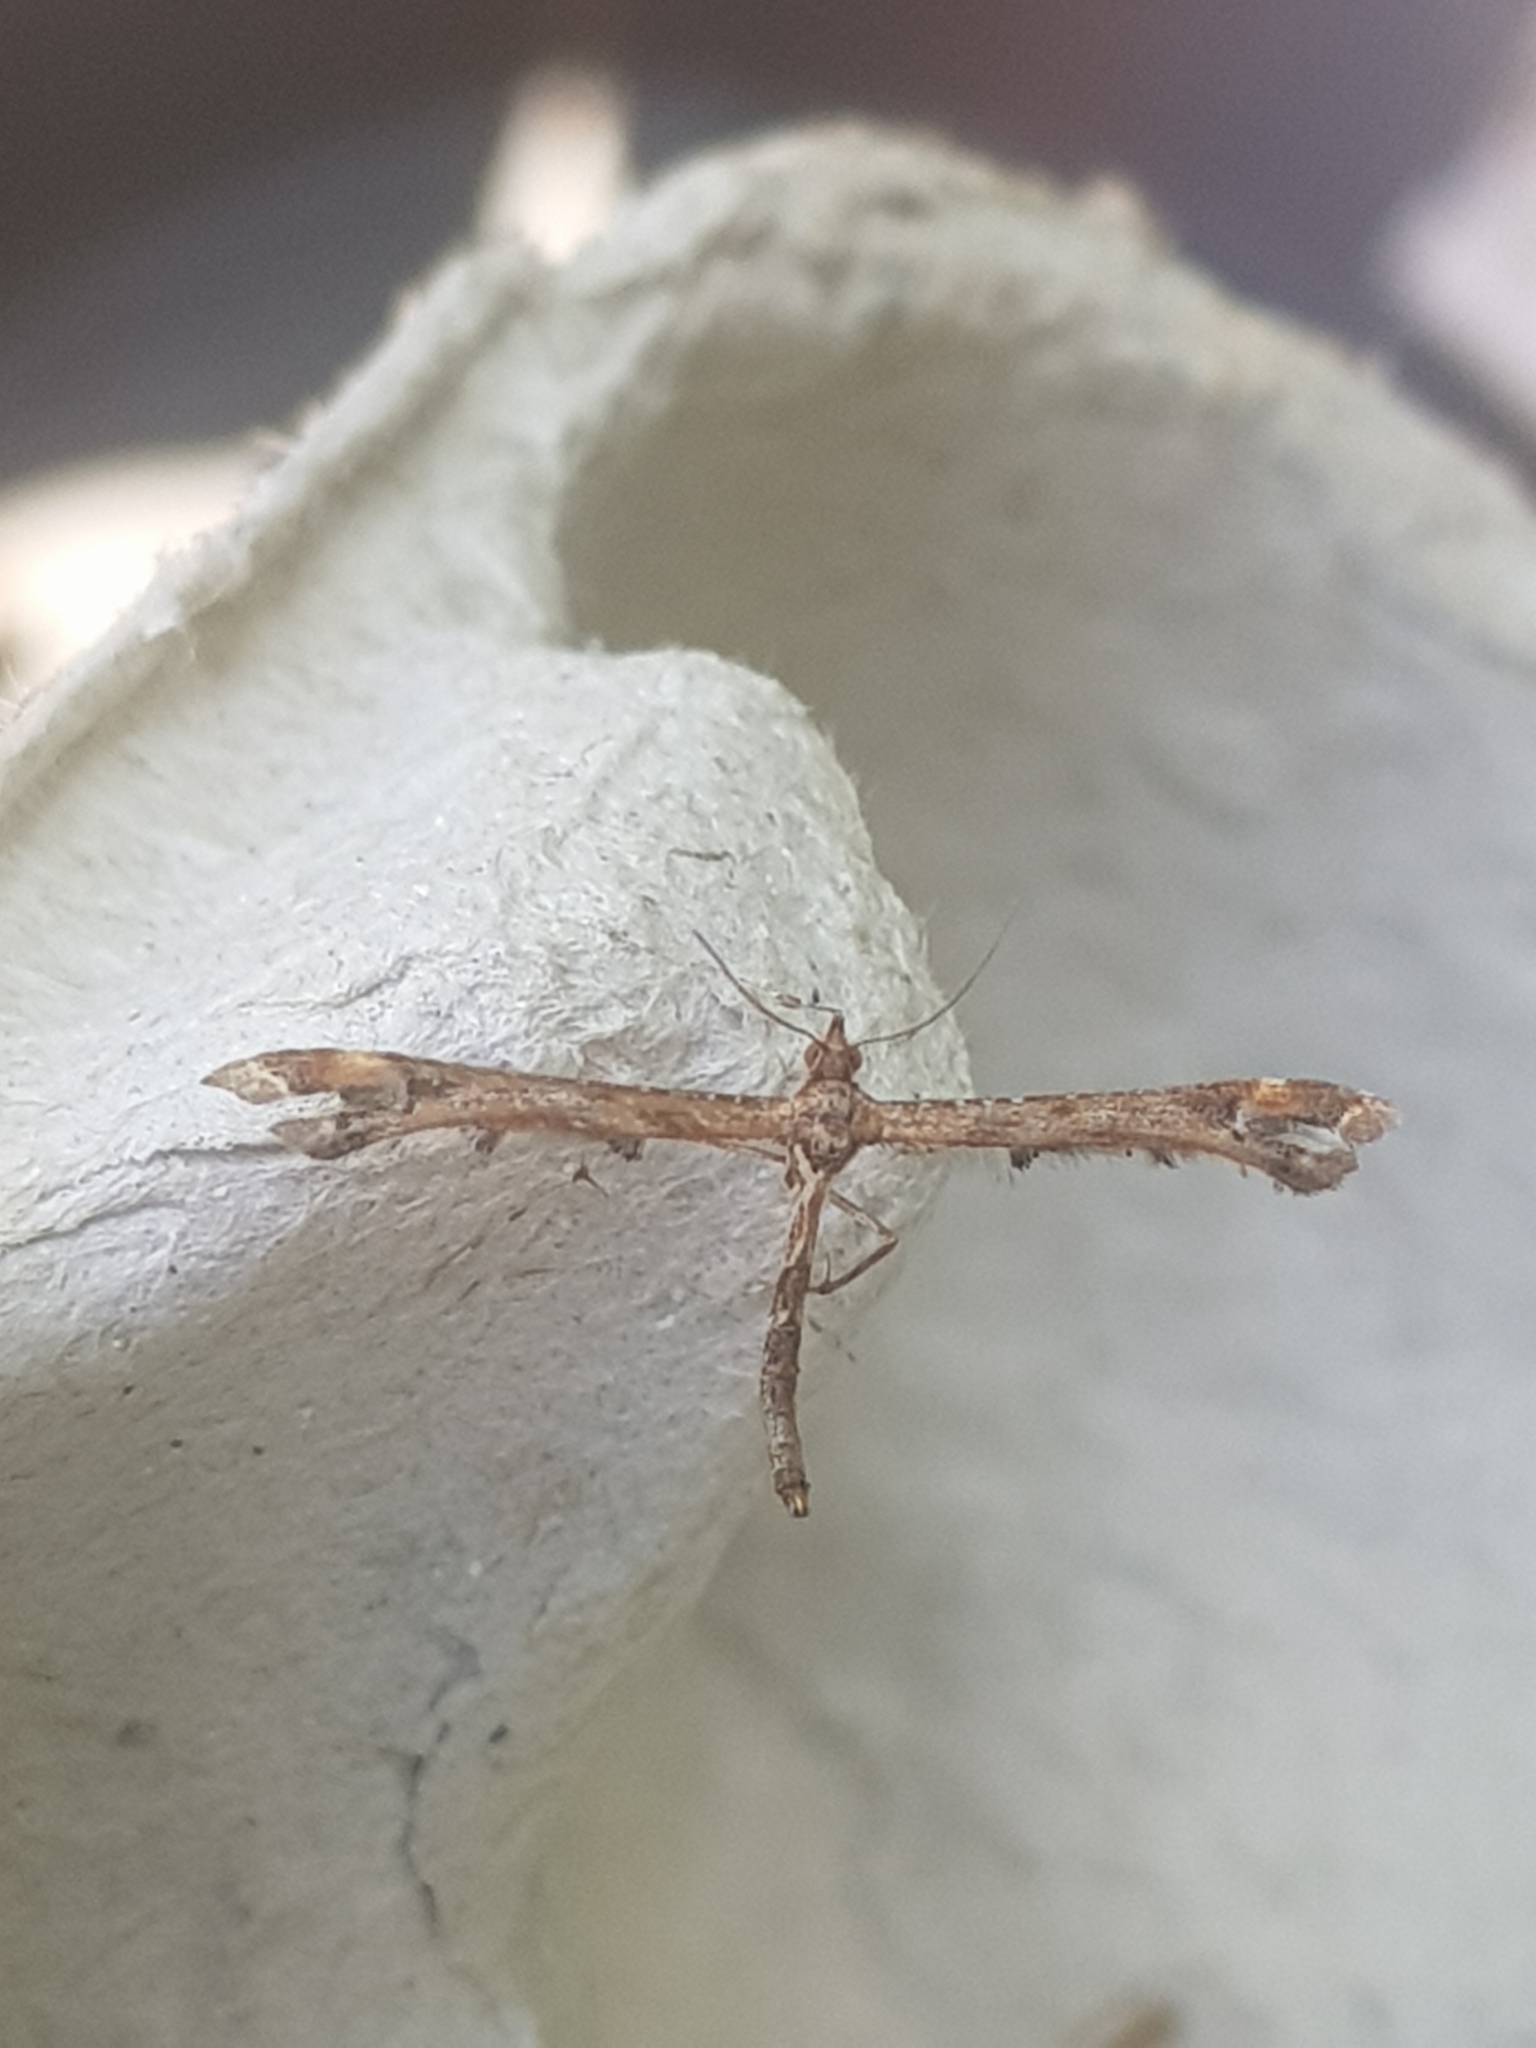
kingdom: Animalia
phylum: Arthropoda
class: Insecta
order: Lepidoptera
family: Pterophoridae
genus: Amblyptilia
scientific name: Amblyptilia acanthadactyla
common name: Beautiful plume
